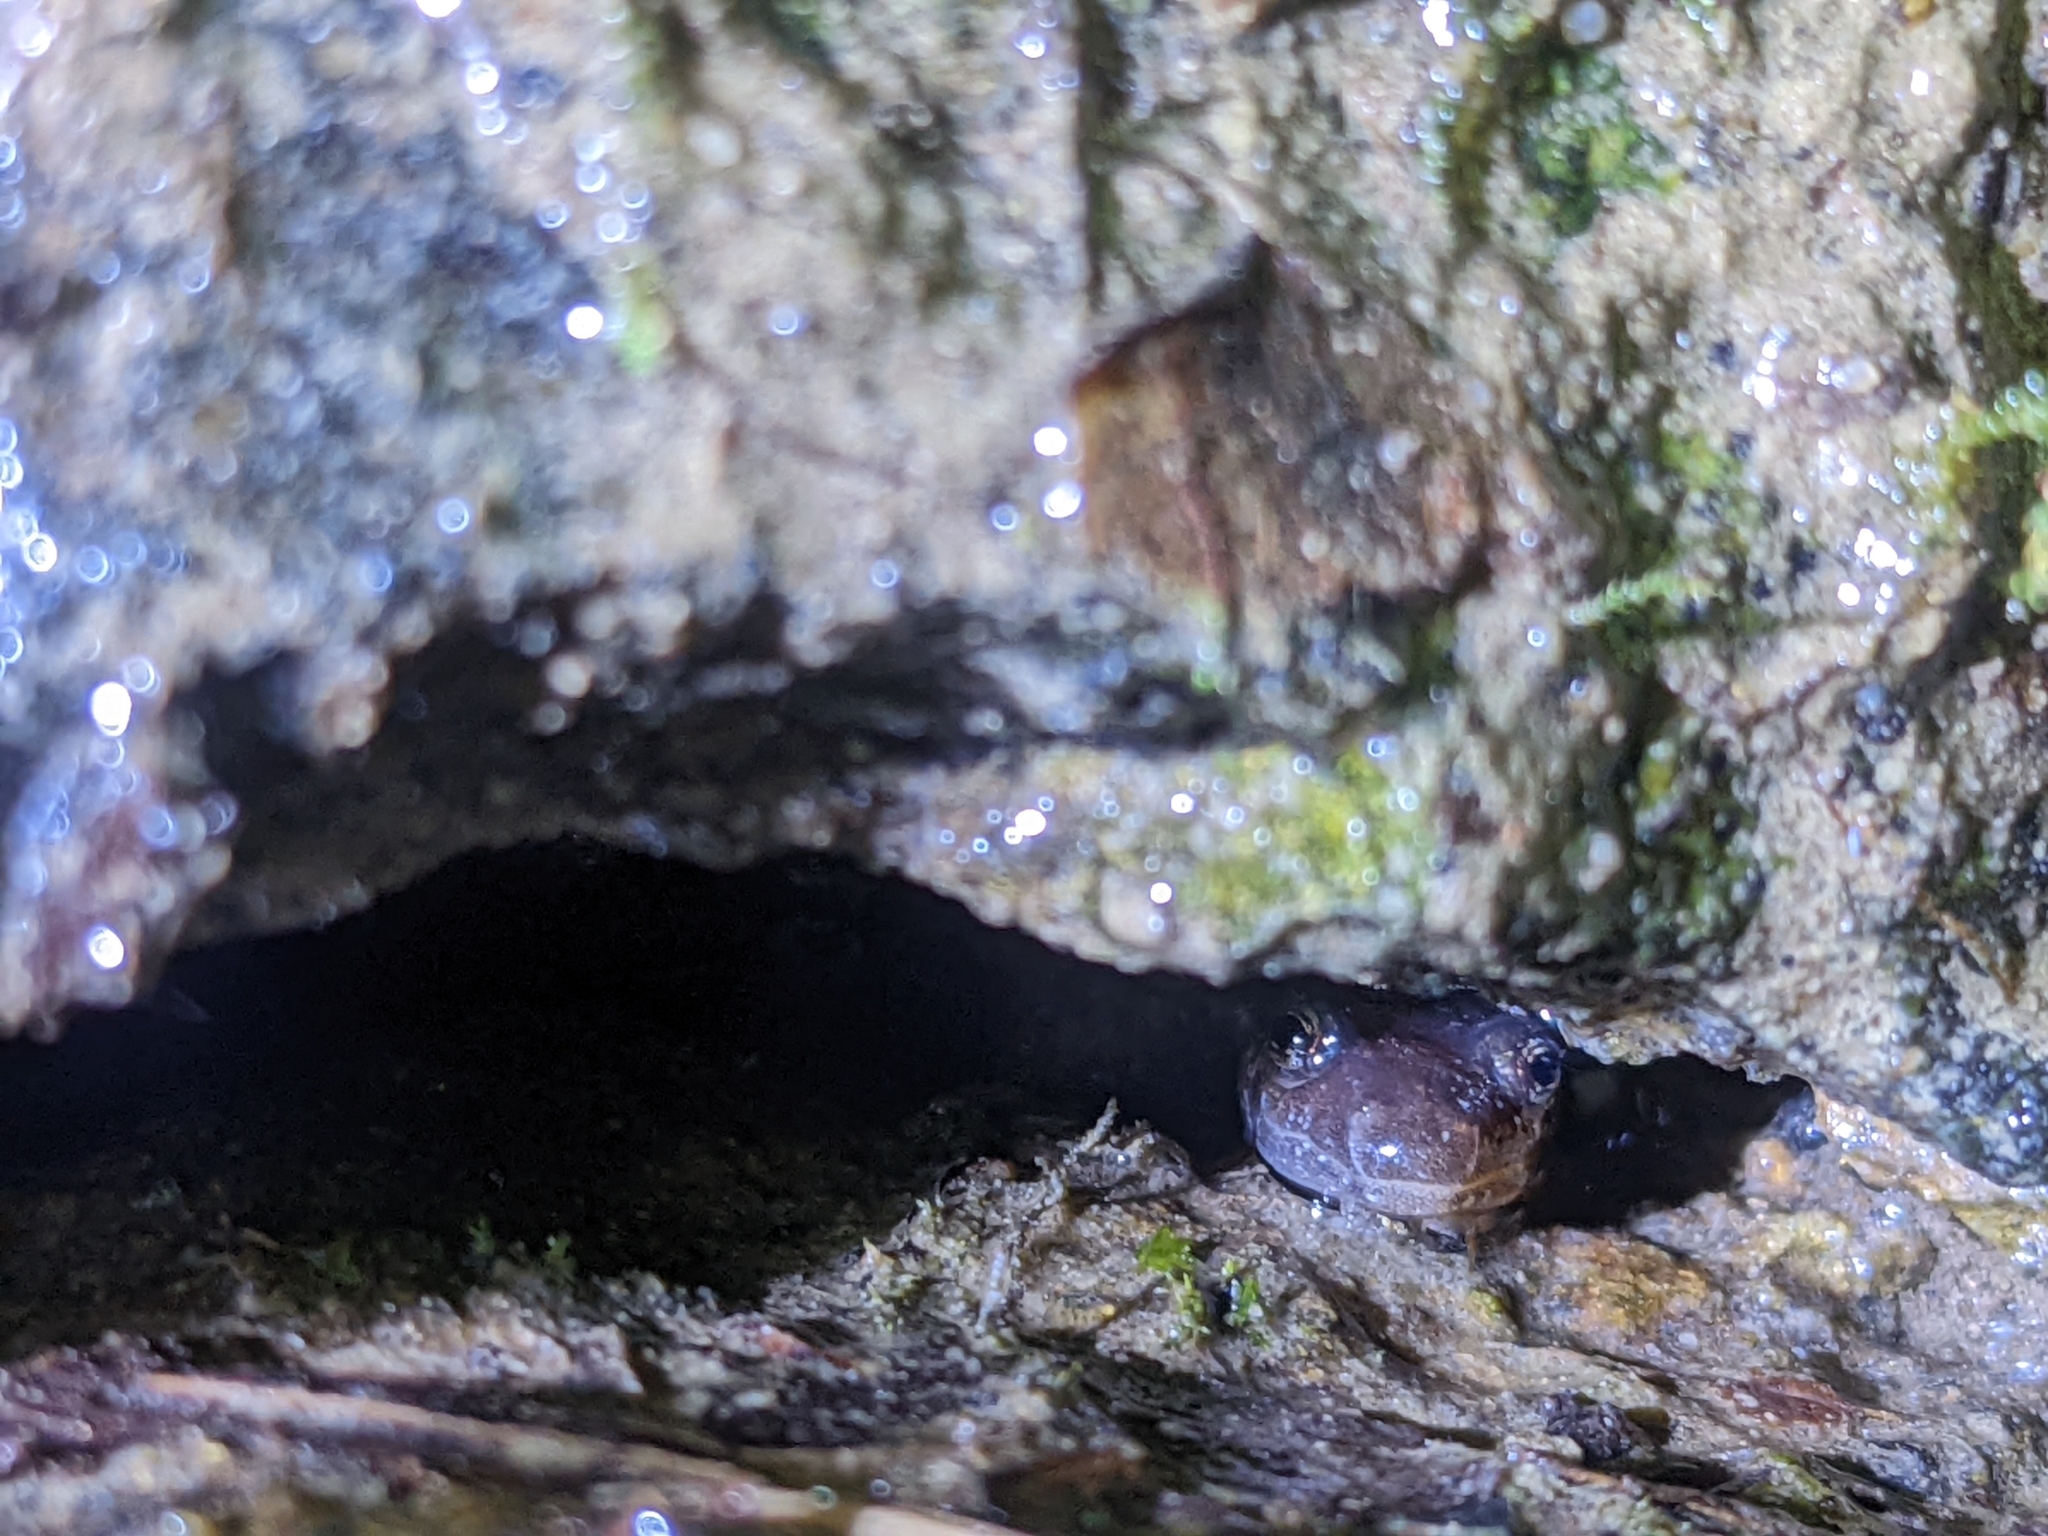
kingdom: Animalia
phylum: Chordata
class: Amphibia
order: Caudata
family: Plethodontidae
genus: Desmognathus
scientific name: Desmognathus monticola
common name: Seal salamander
